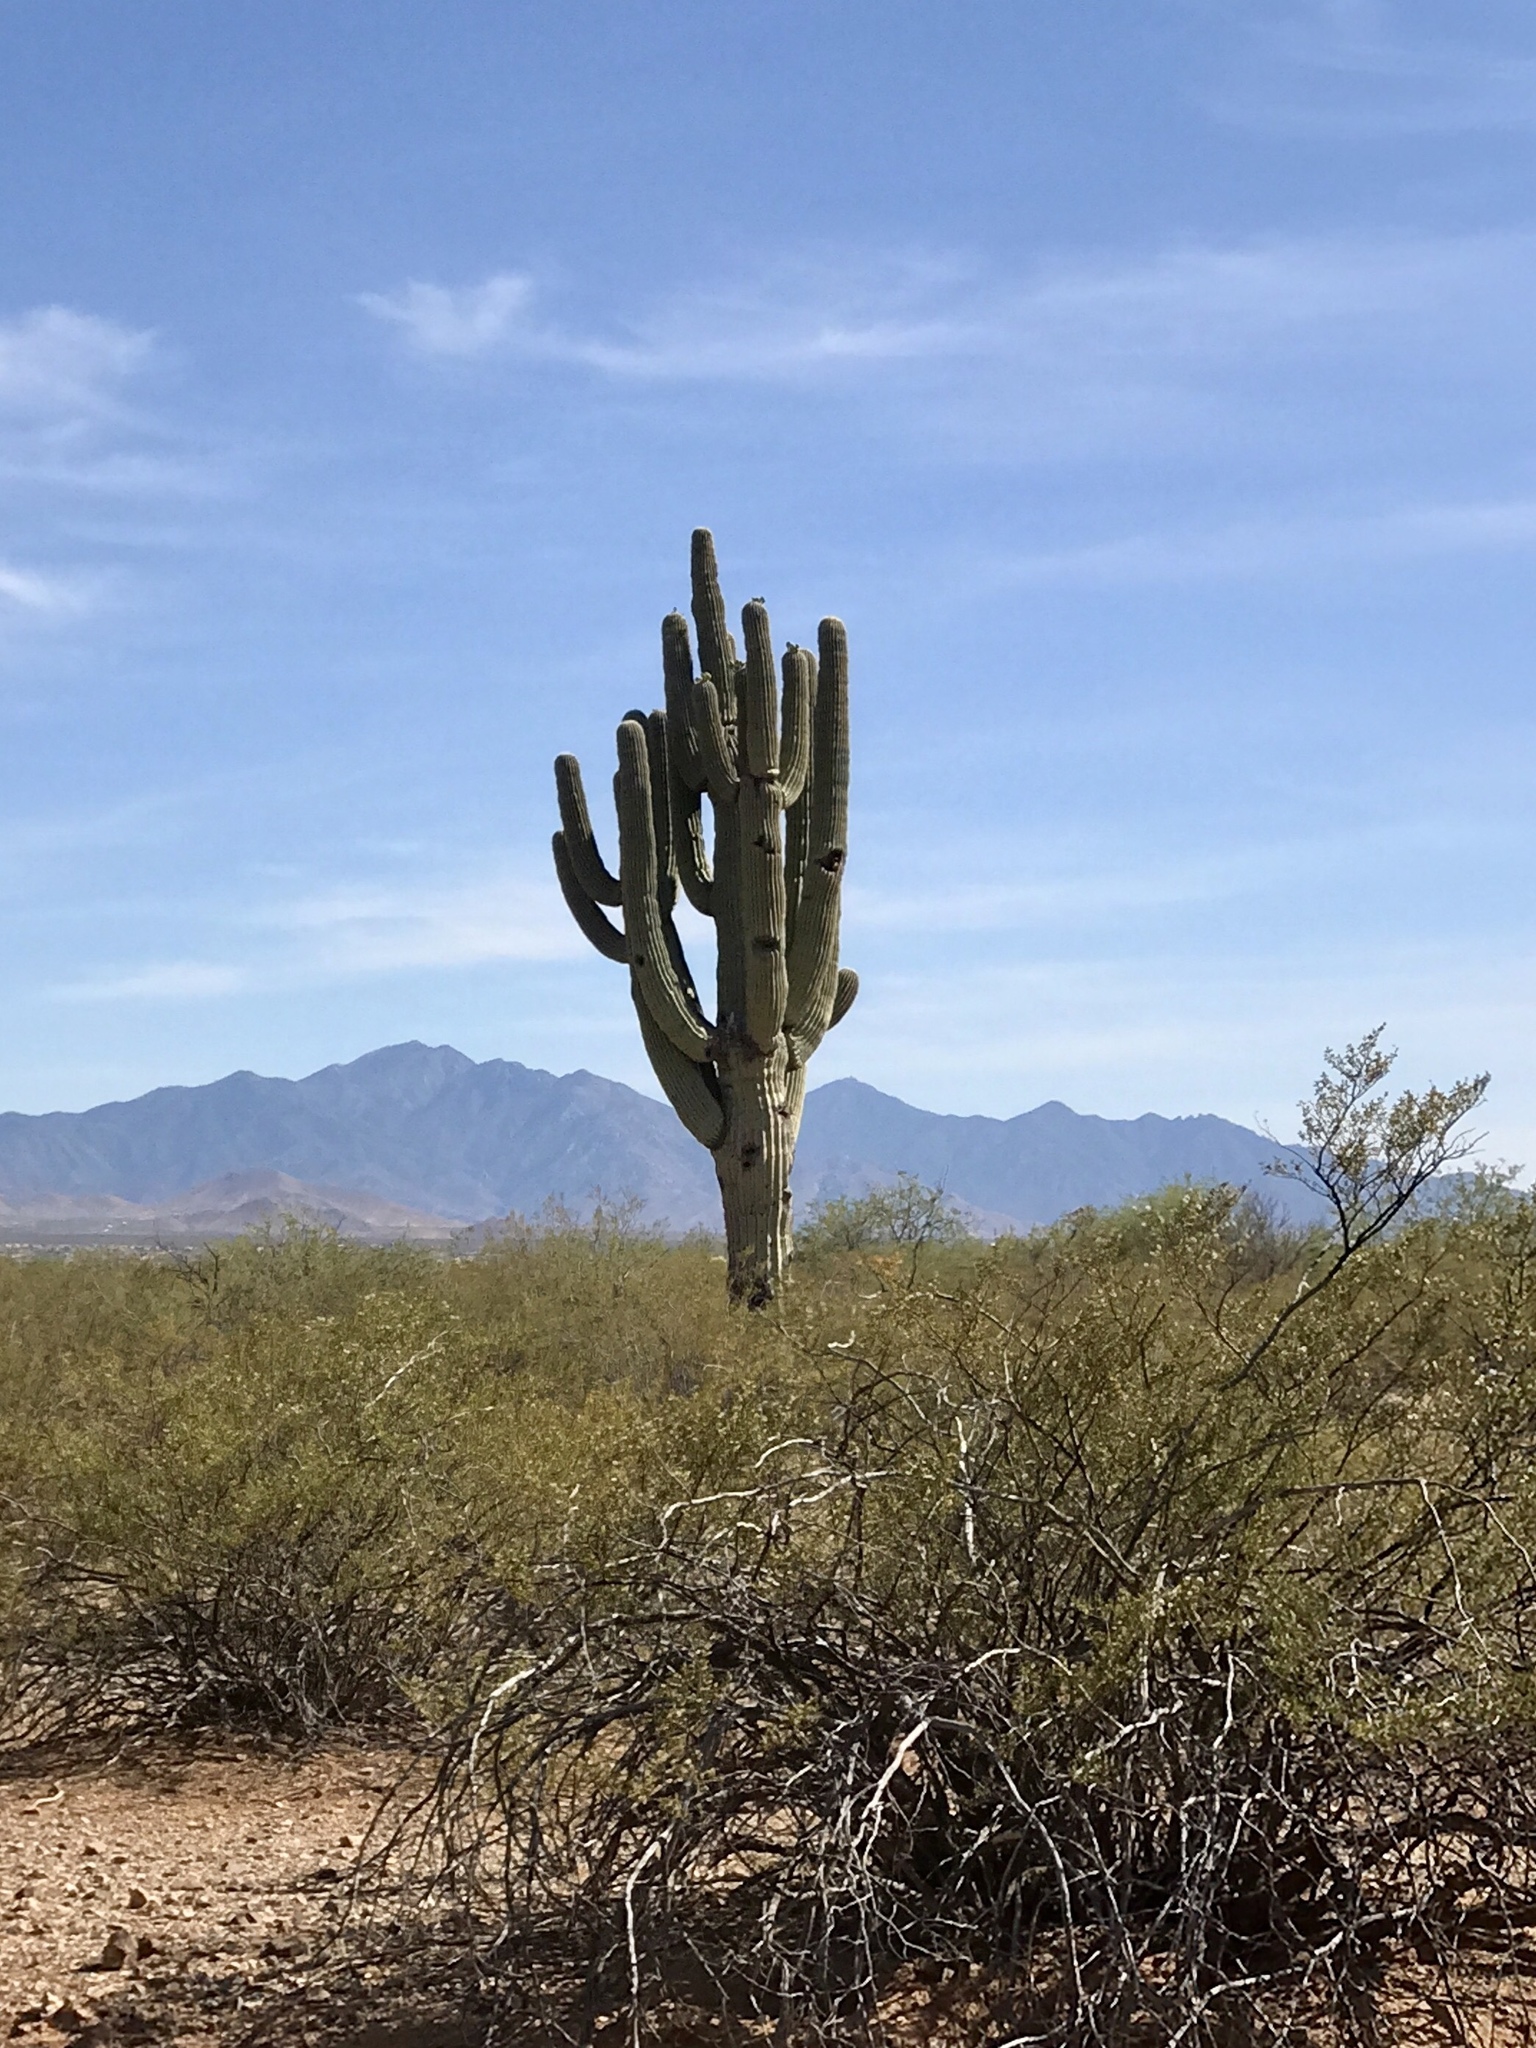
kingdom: Plantae
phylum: Tracheophyta
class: Magnoliopsida
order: Caryophyllales
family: Cactaceae
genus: Carnegiea
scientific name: Carnegiea gigantea
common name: Saguaro
